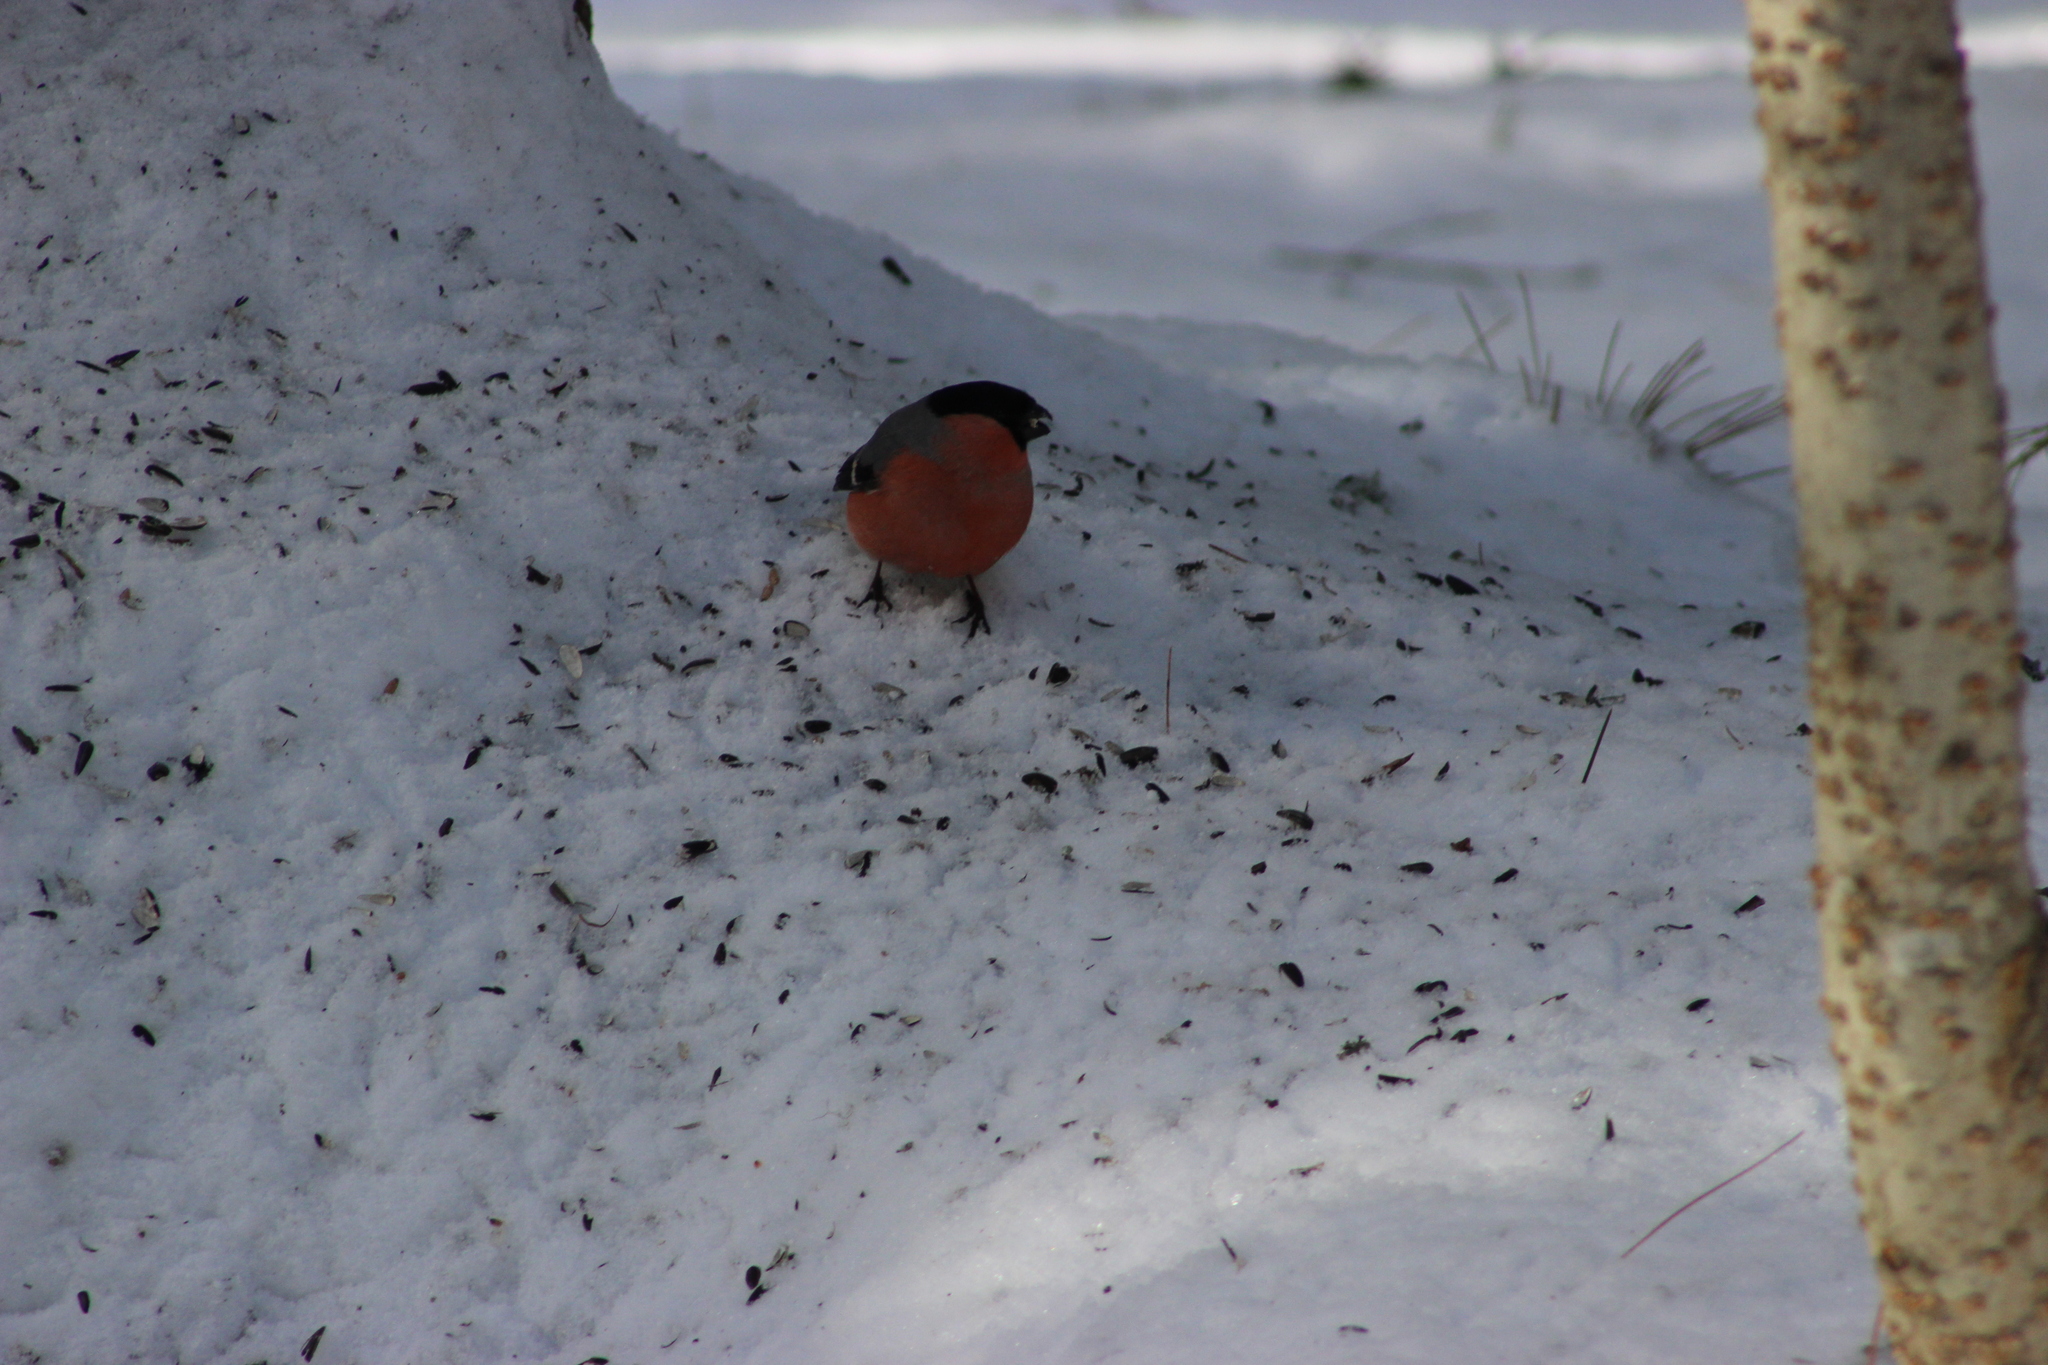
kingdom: Animalia
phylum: Chordata
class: Aves
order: Passeriformes
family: Fringillidae
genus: Pyrrhula
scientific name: Pyrrhula pyrrhula
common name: Eurasian bullfinch
